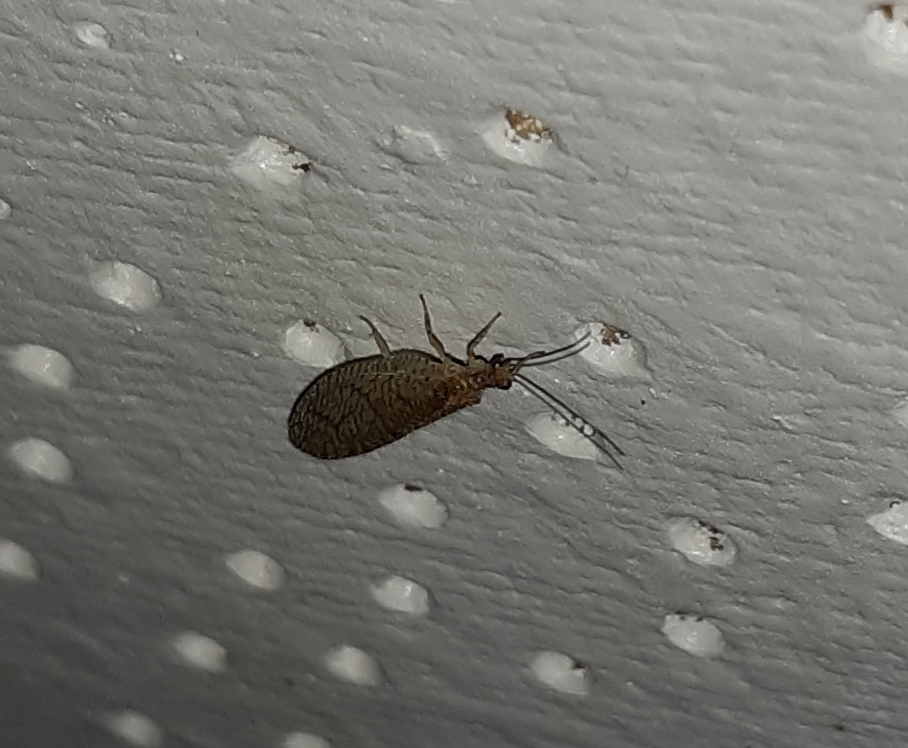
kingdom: Animalia
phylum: Arthropoda
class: Insecta
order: Neuroptera
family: Hemerobiidae
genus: Micromus
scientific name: Micromus posticus
